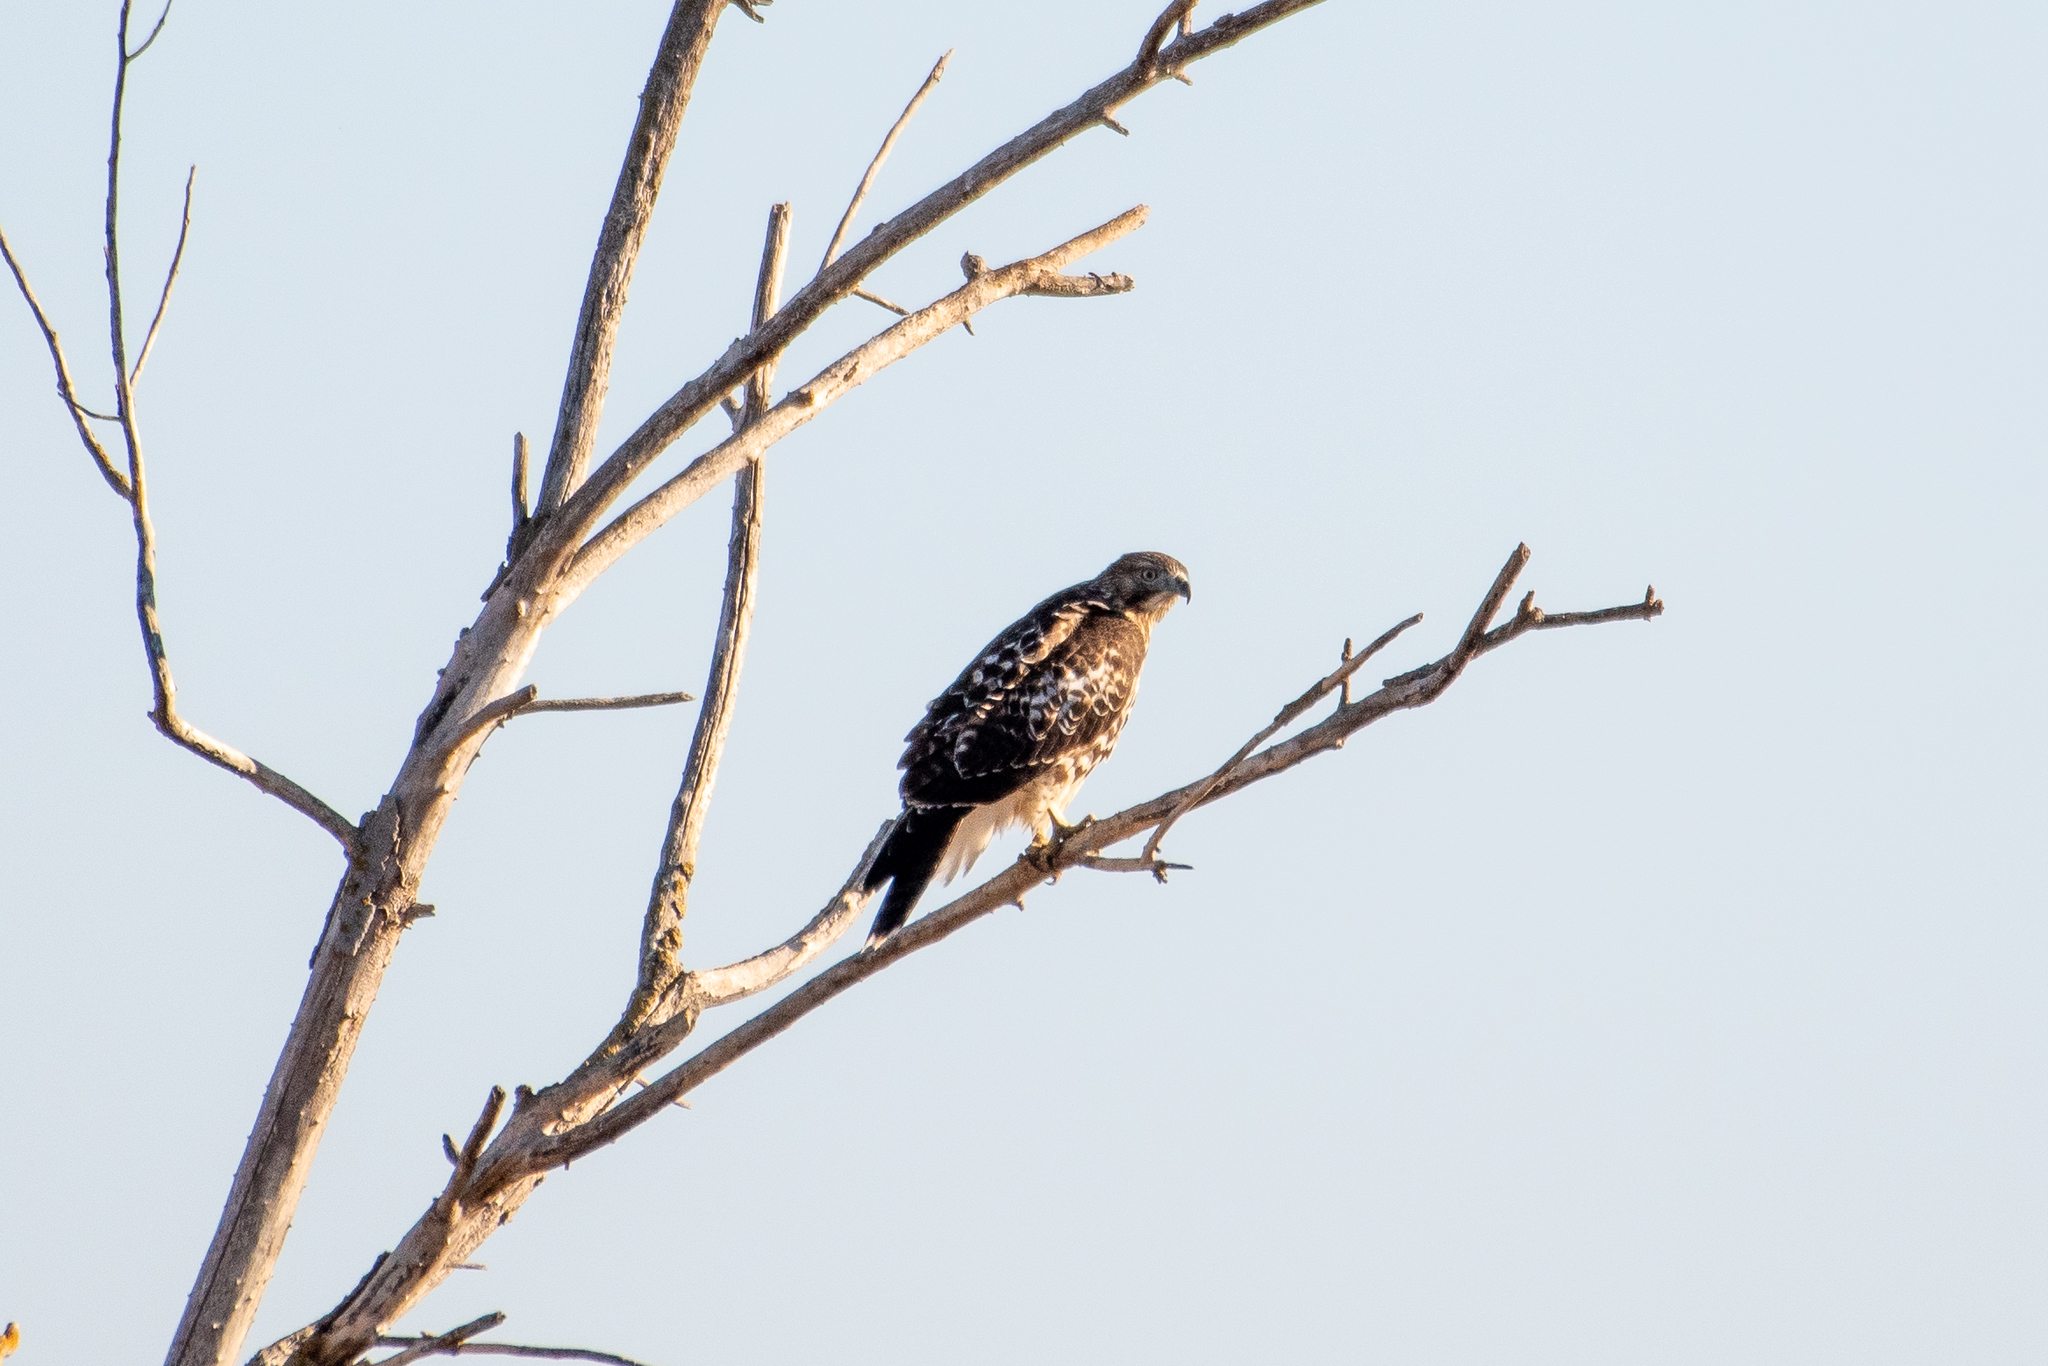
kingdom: Animalia
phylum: Chordata
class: Aves
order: Accipitriformes
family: Accipitridae
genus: Buteo
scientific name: Buteo jamaicensis
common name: Red-tailed hawk
